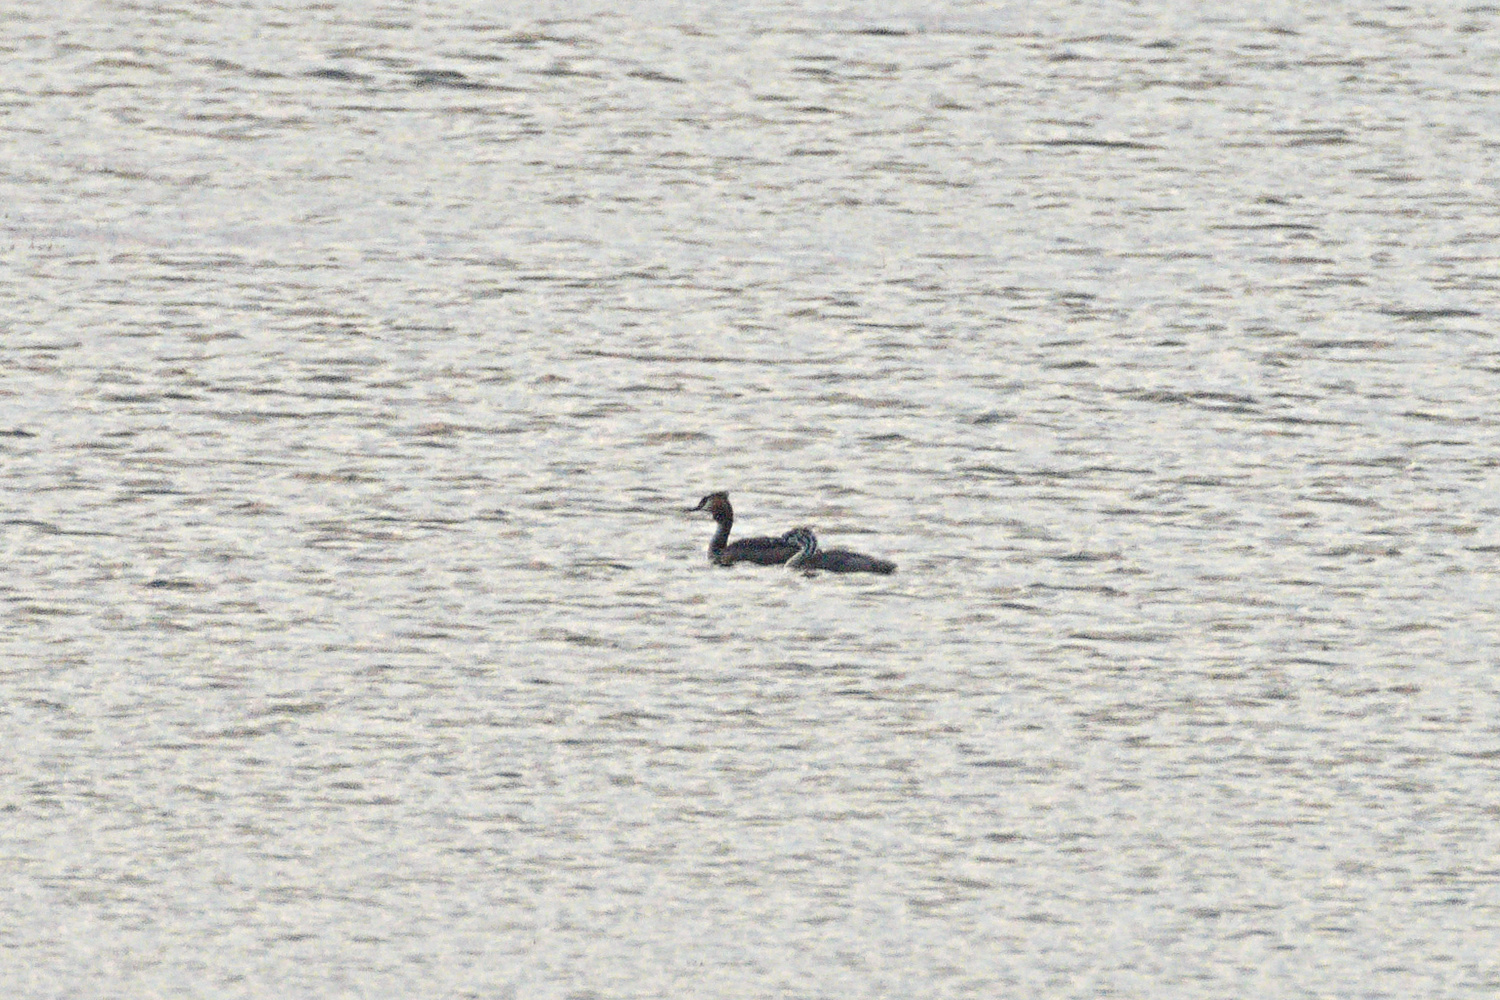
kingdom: Animalia
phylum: Chordata
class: Aves
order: Podicipediformes
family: Podicipedidae
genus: Podiceps
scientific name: Podiceps cristatus
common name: Great crested grebe
